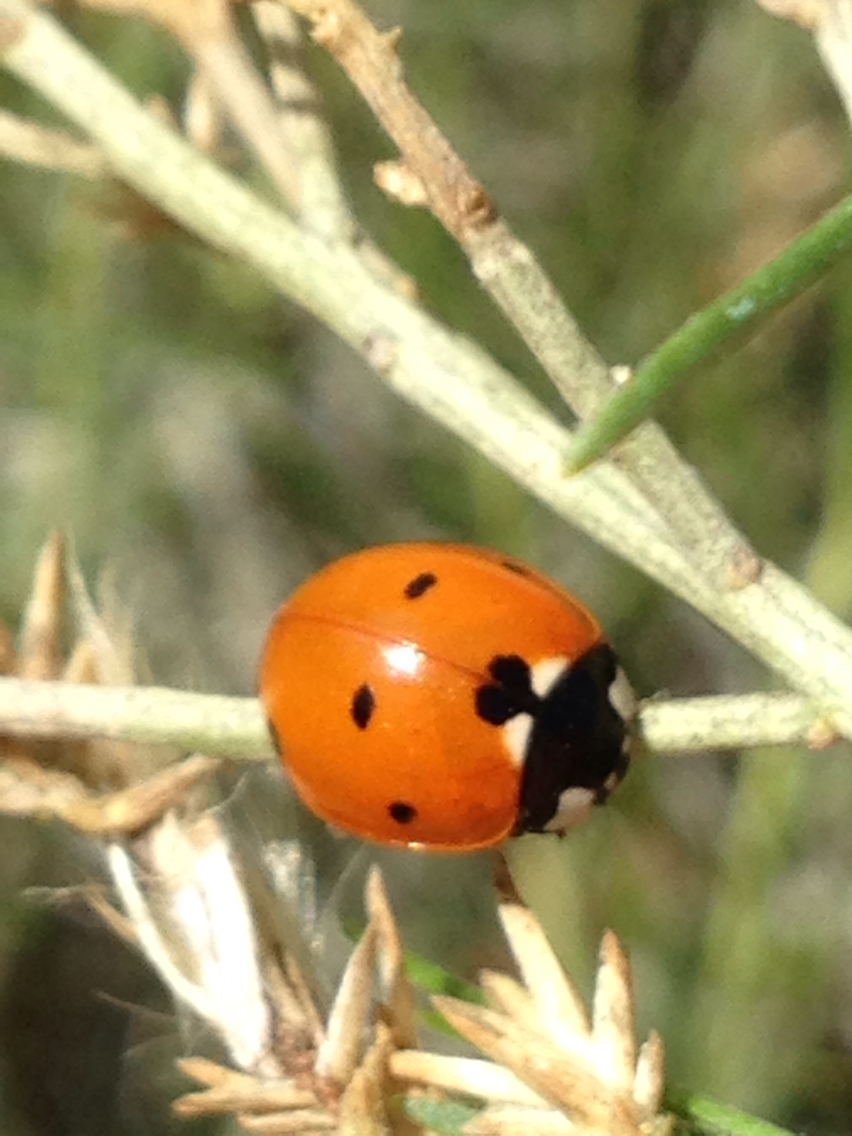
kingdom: Animalia
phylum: Arthropoda
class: Insecta
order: Coleoptera
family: Coccinellidae
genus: Coccinella
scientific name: Coccinella septempunctata
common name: Sevenspotted lady beetle
